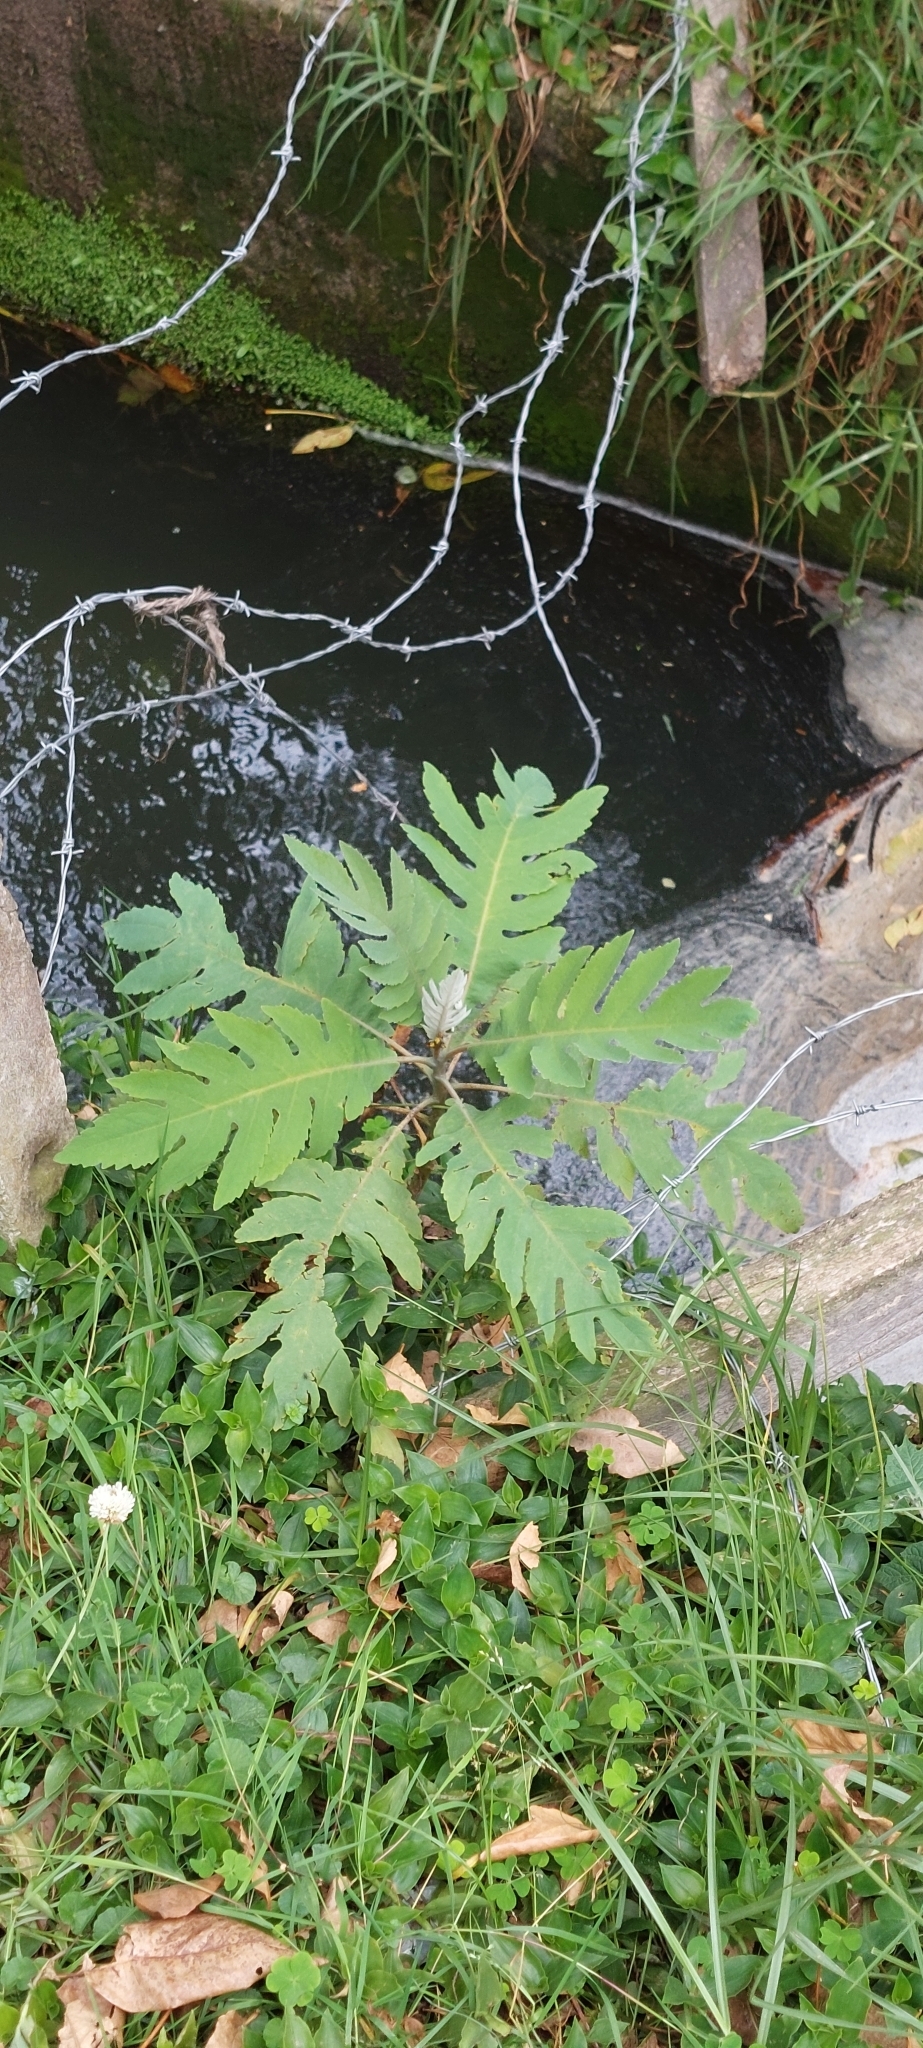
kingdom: Plantae
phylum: Tracheophyta
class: Magnoliopsida
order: Ranunculales
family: Papaveraceae
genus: Bocconia
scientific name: Bocconia frutescens
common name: Tree poppy
